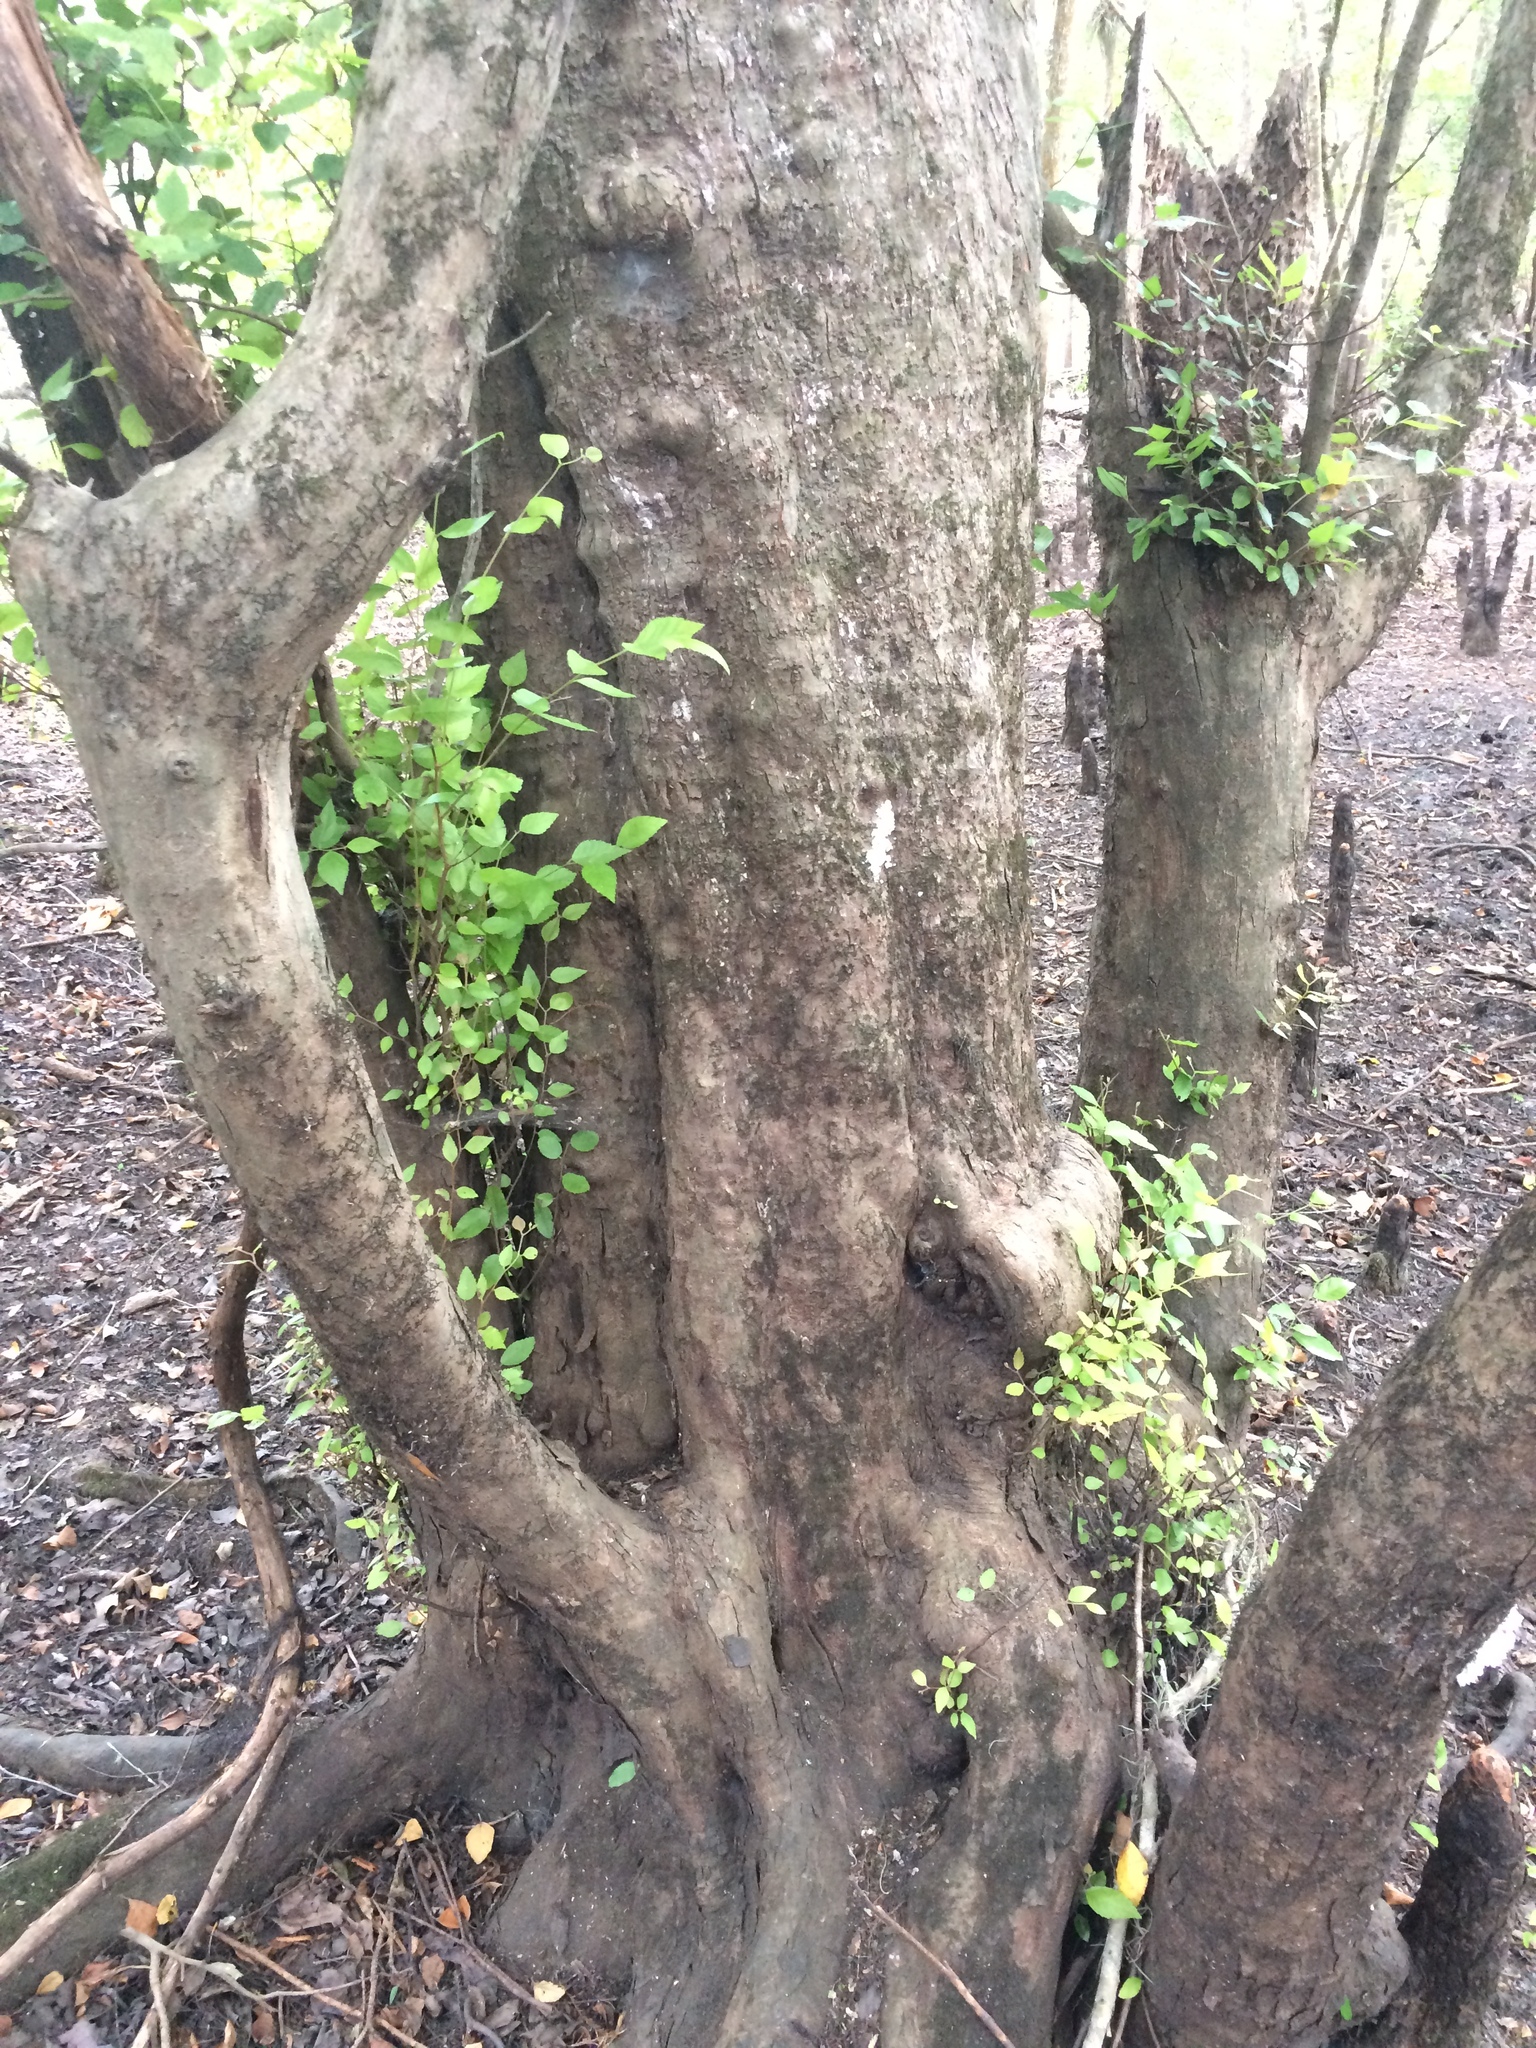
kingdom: Plantae
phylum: Tracheophyta
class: Magnoliopsida
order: Fagales
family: Betulaceae
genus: Carpinus
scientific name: Carpinus caroliniana
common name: American hornbeam
